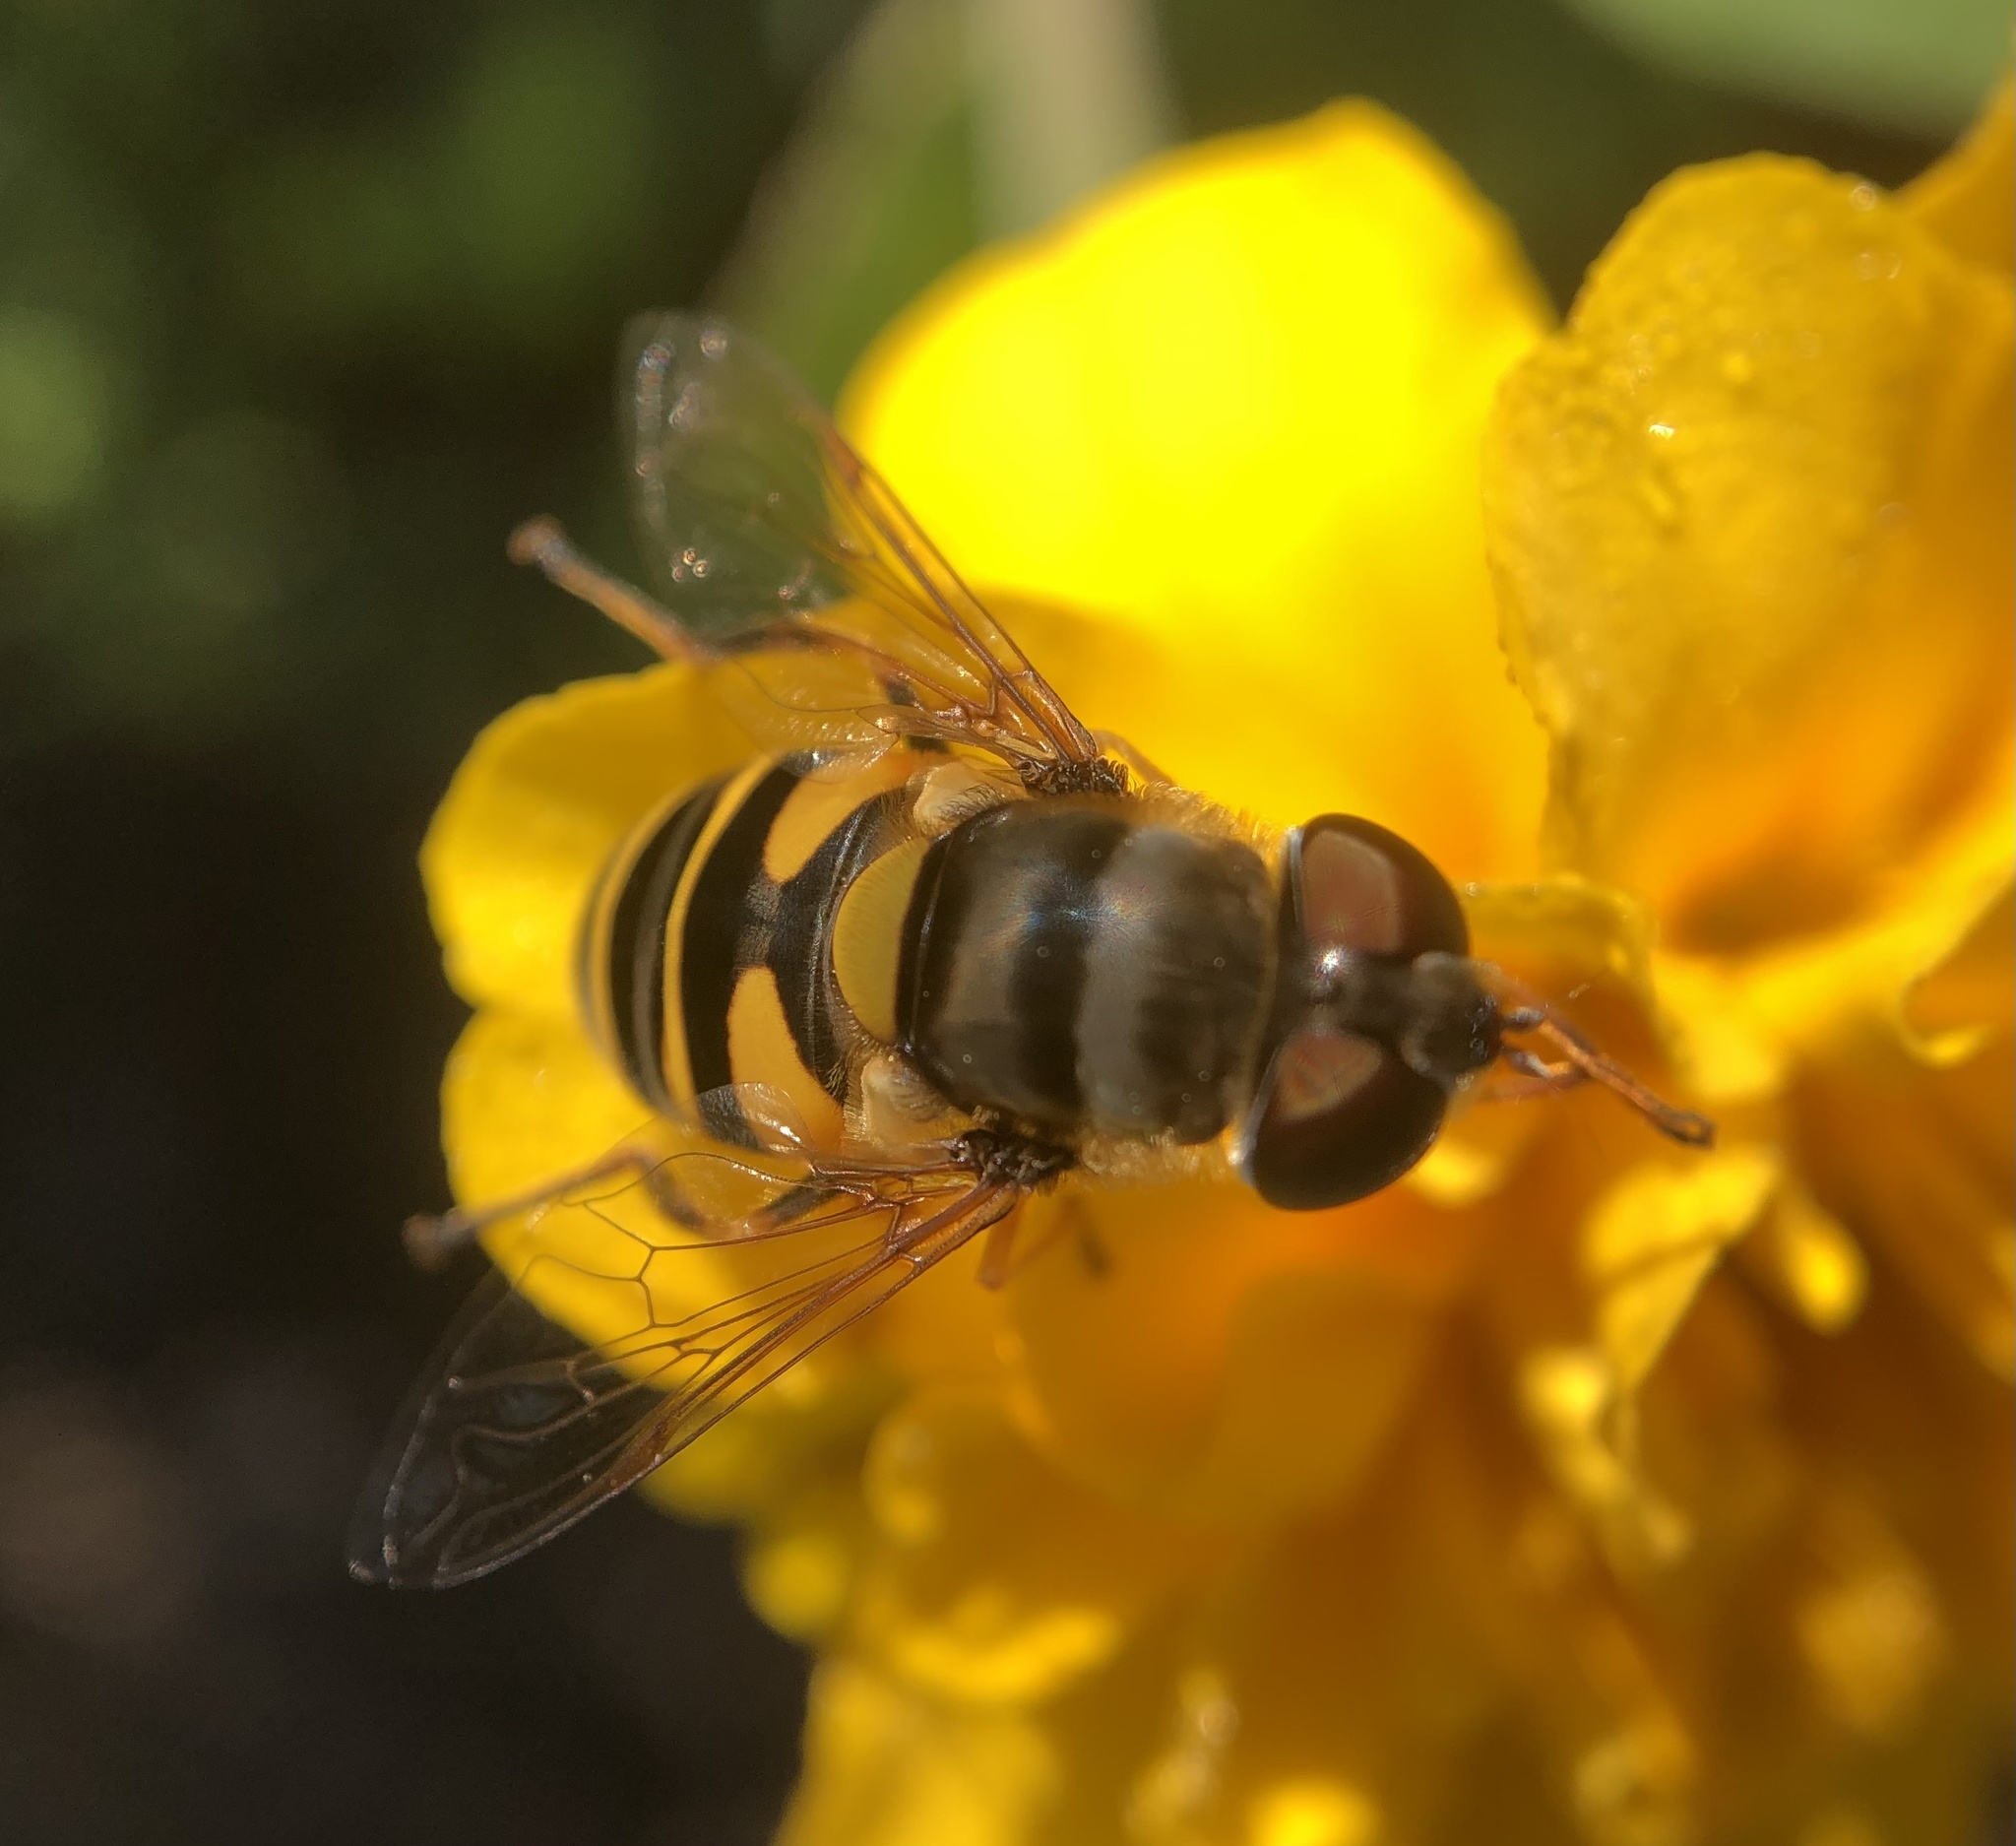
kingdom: Animalia
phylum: Arthropoda
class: Insecta
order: Diptera
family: Syrphidae
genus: Eristalis
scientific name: Eristalis transversa
